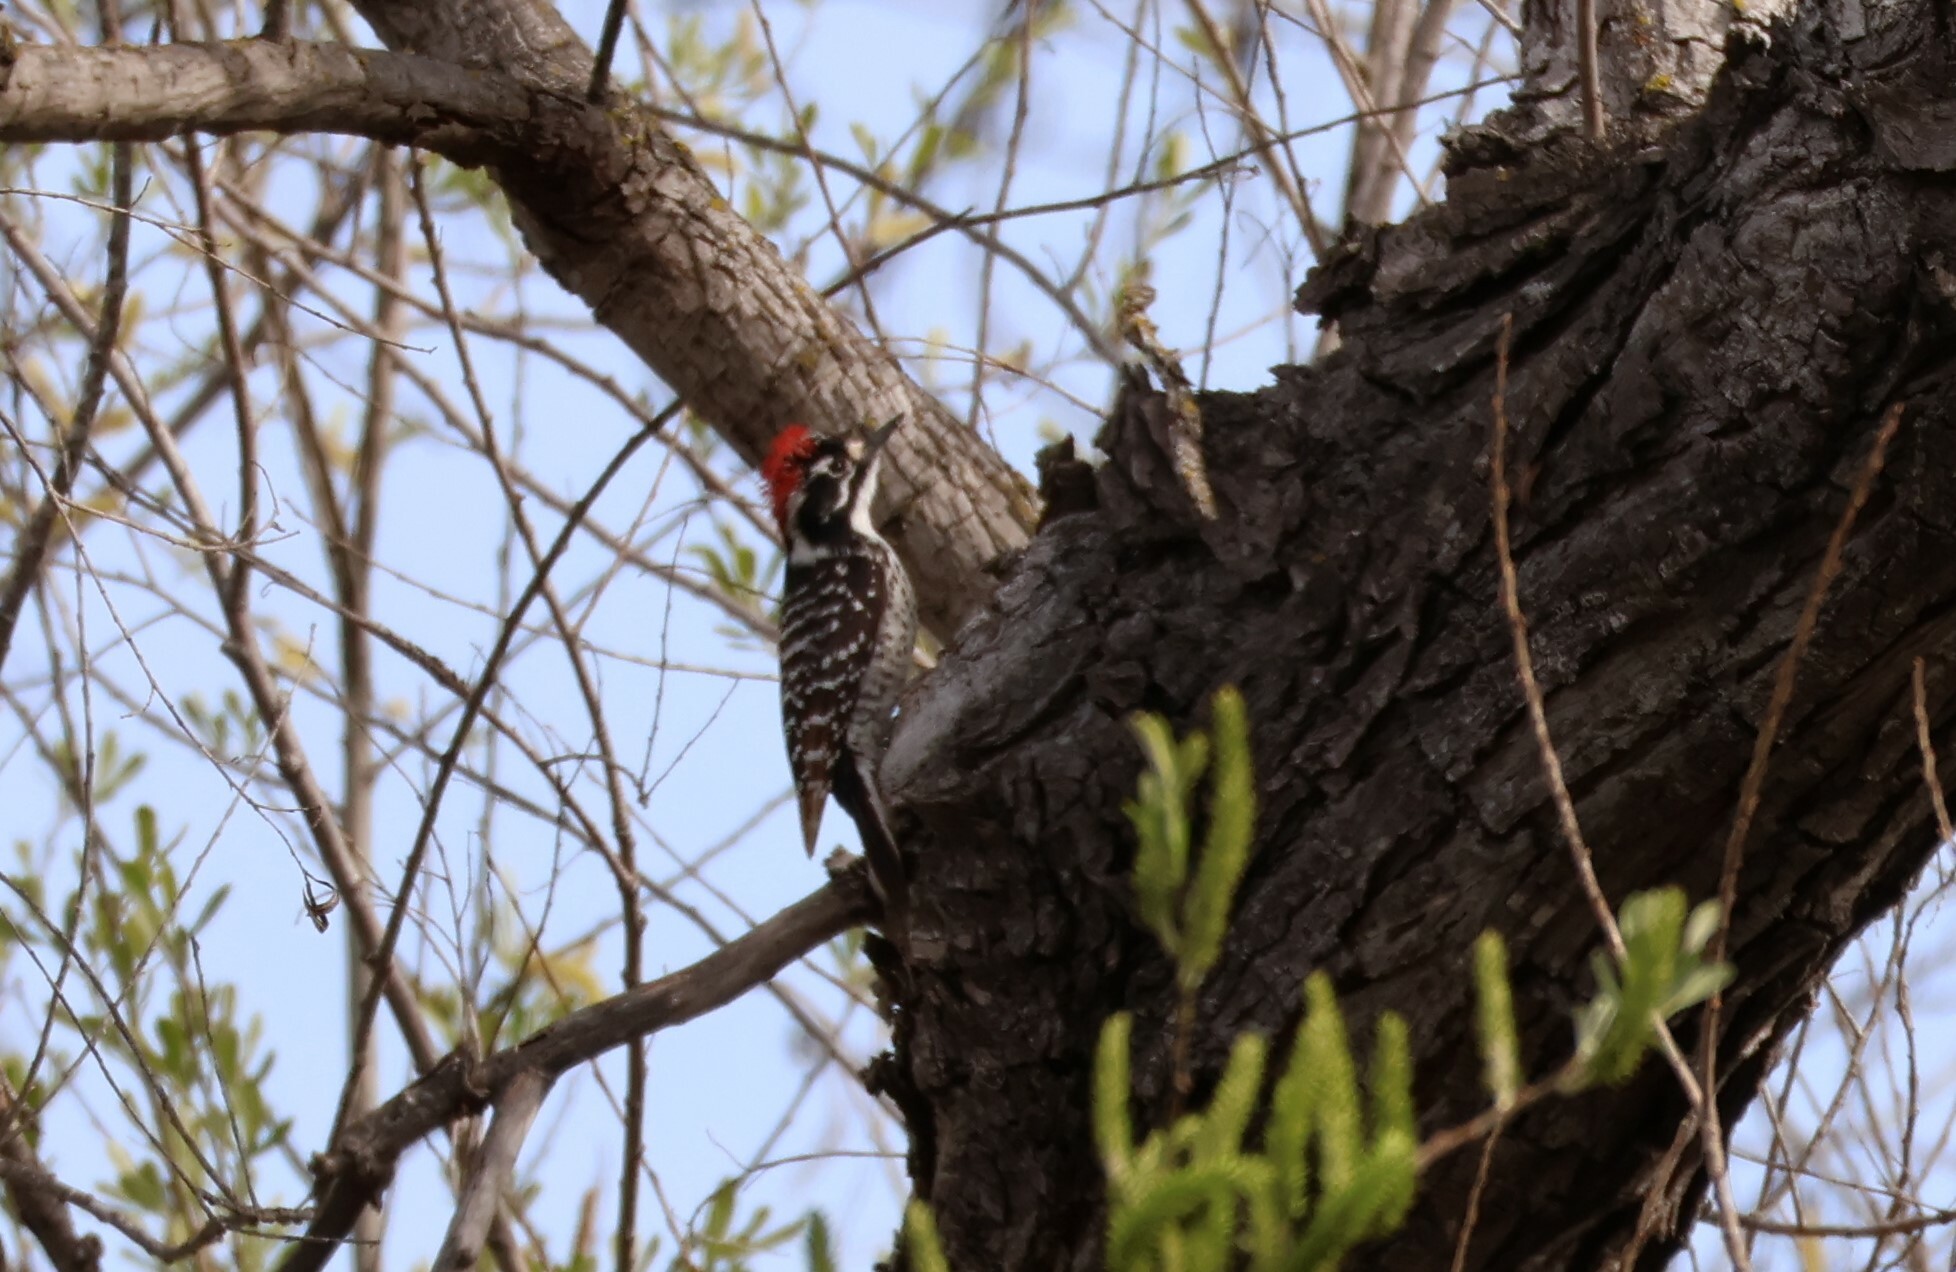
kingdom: Animalia
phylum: Chordata
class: Aves
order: Piciformes
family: Picidae
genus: Dryobates
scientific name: Dryobates nuttallii
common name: Nuttall's woodpecker
